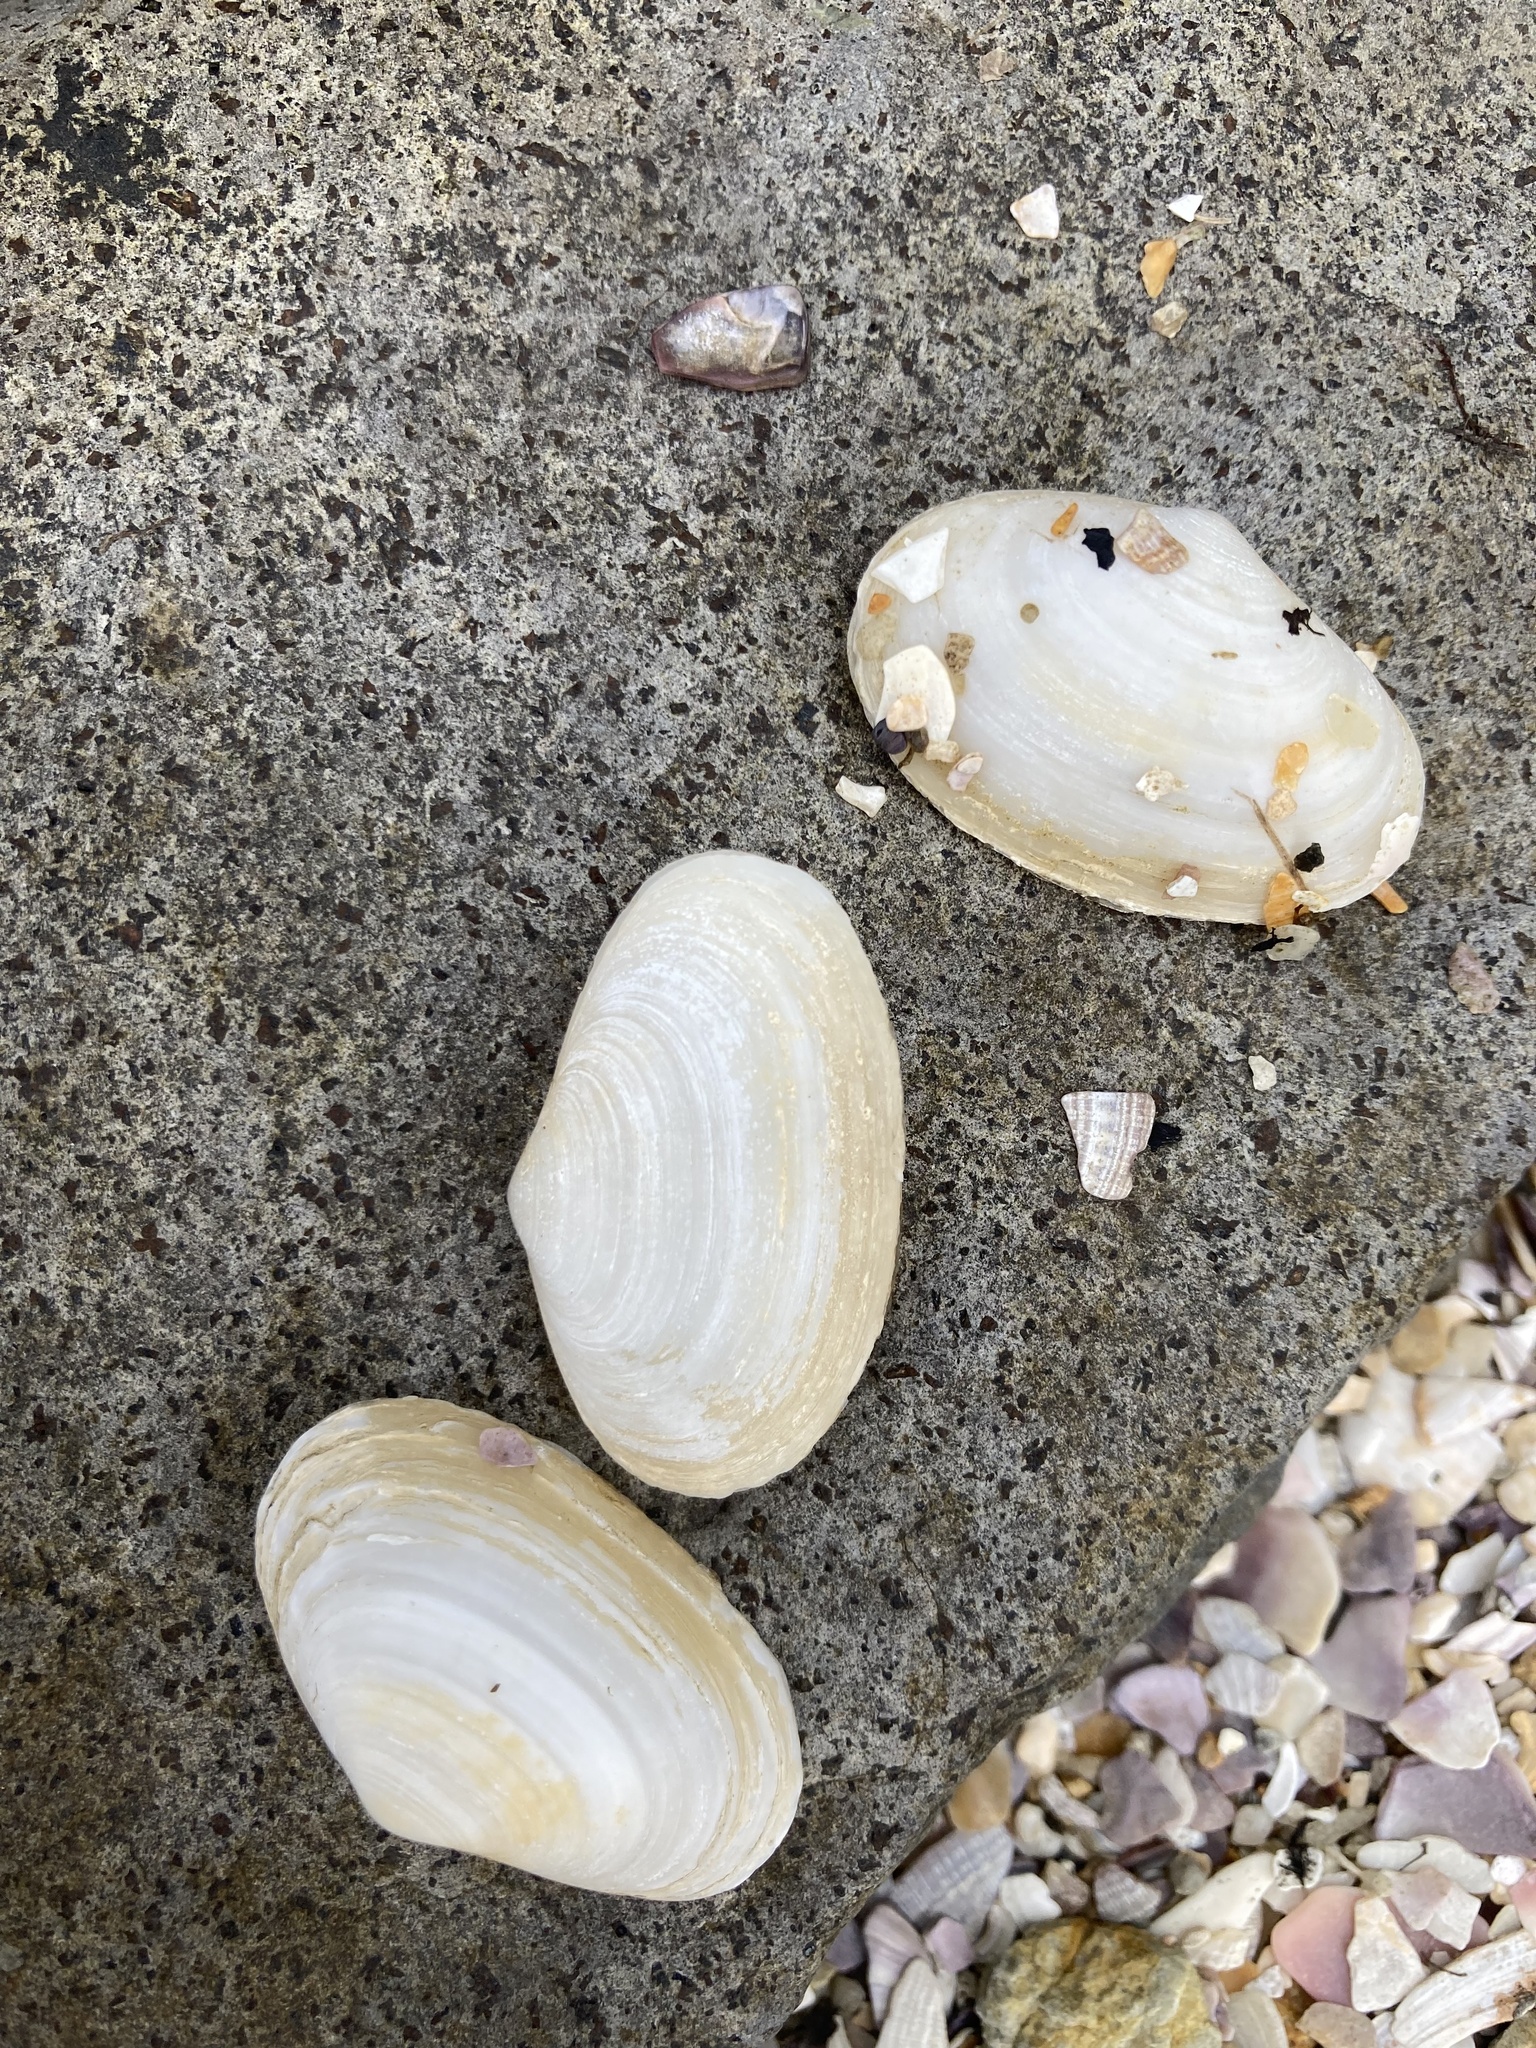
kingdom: Animalia
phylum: Mollusca
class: Bivalvia
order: Venerida
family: Mesodesmatidae
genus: Paphies
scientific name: Paphies australis
